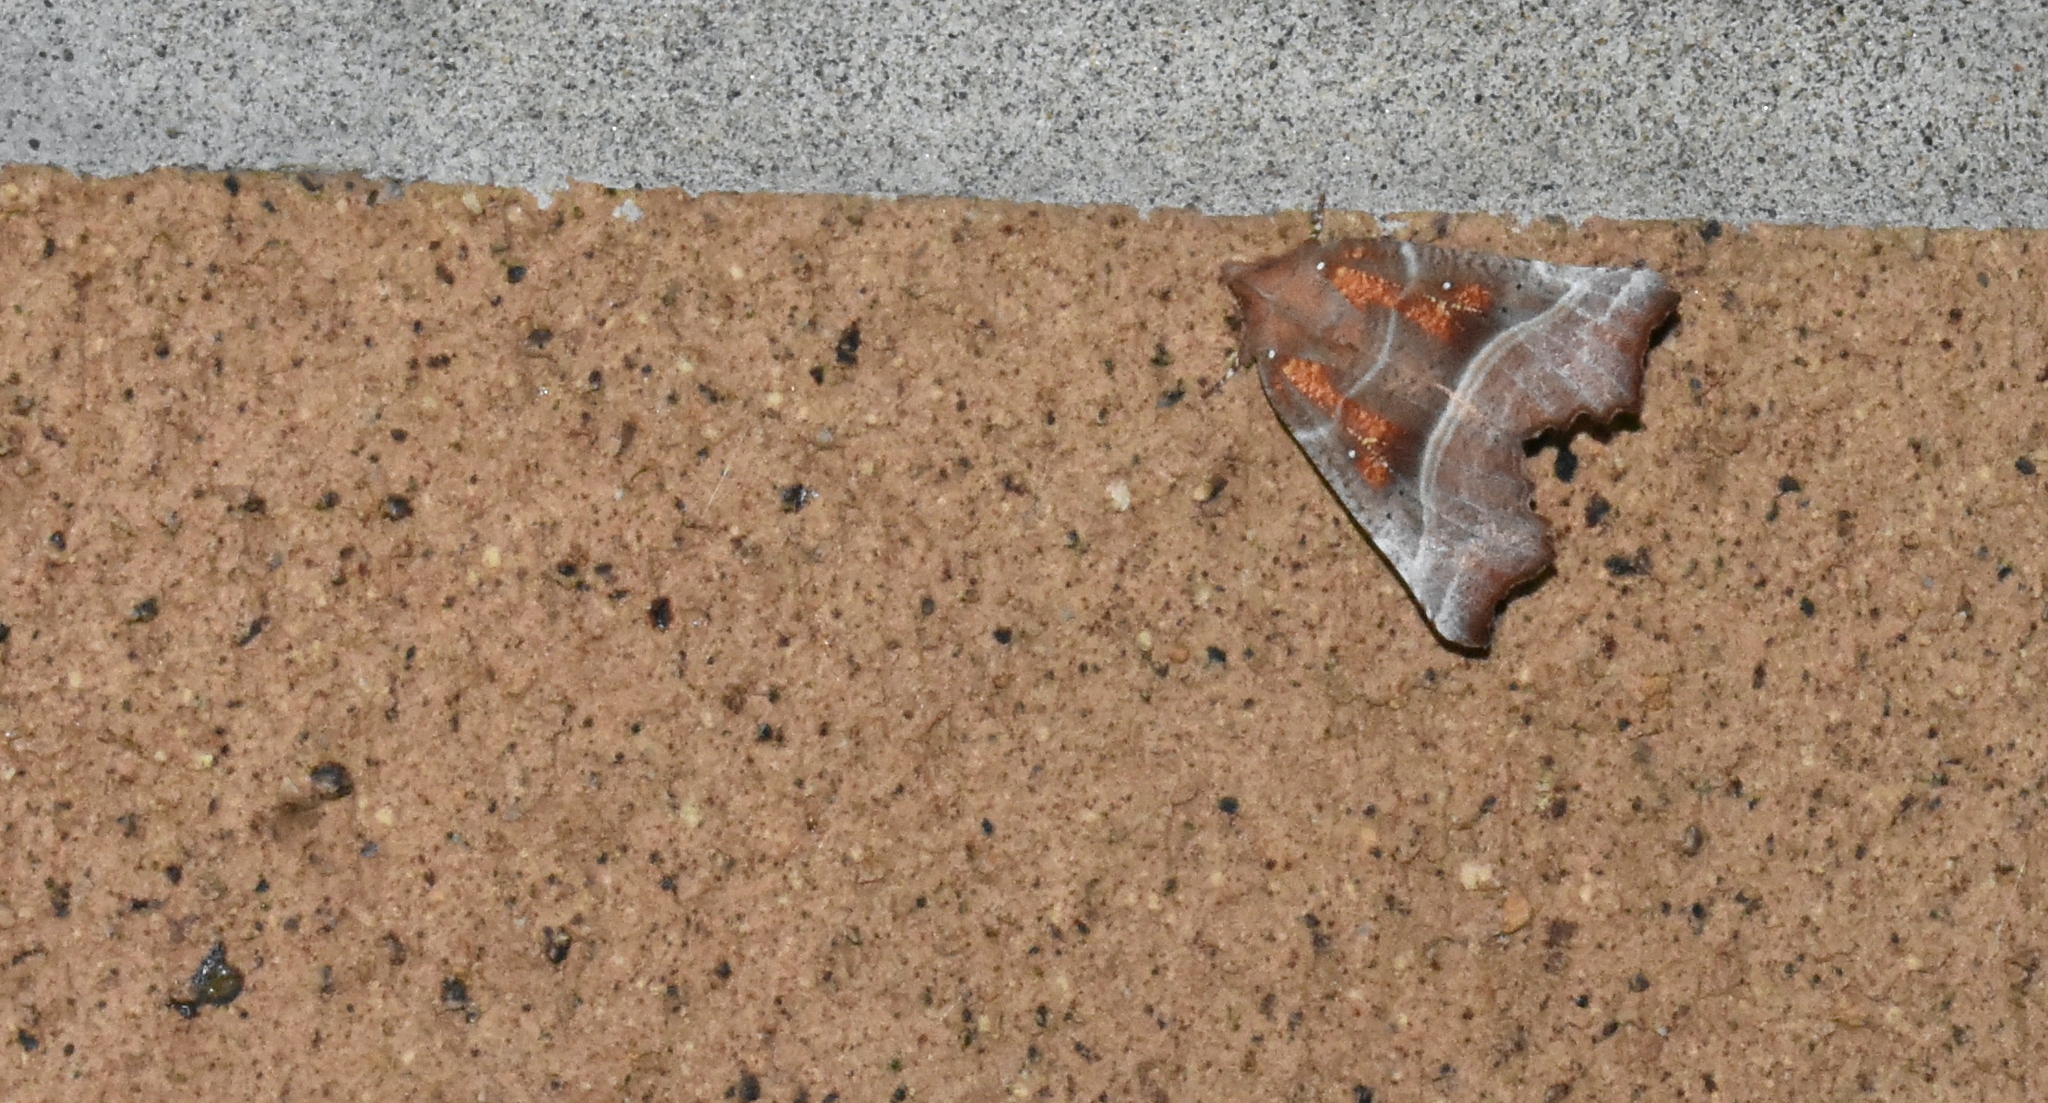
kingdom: Animalia
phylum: Arthropoda
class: Insecta
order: Lepidoptera
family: Erebidae
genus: Scoliopteryx
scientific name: Scoliopteryx libatrix
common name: Herald
